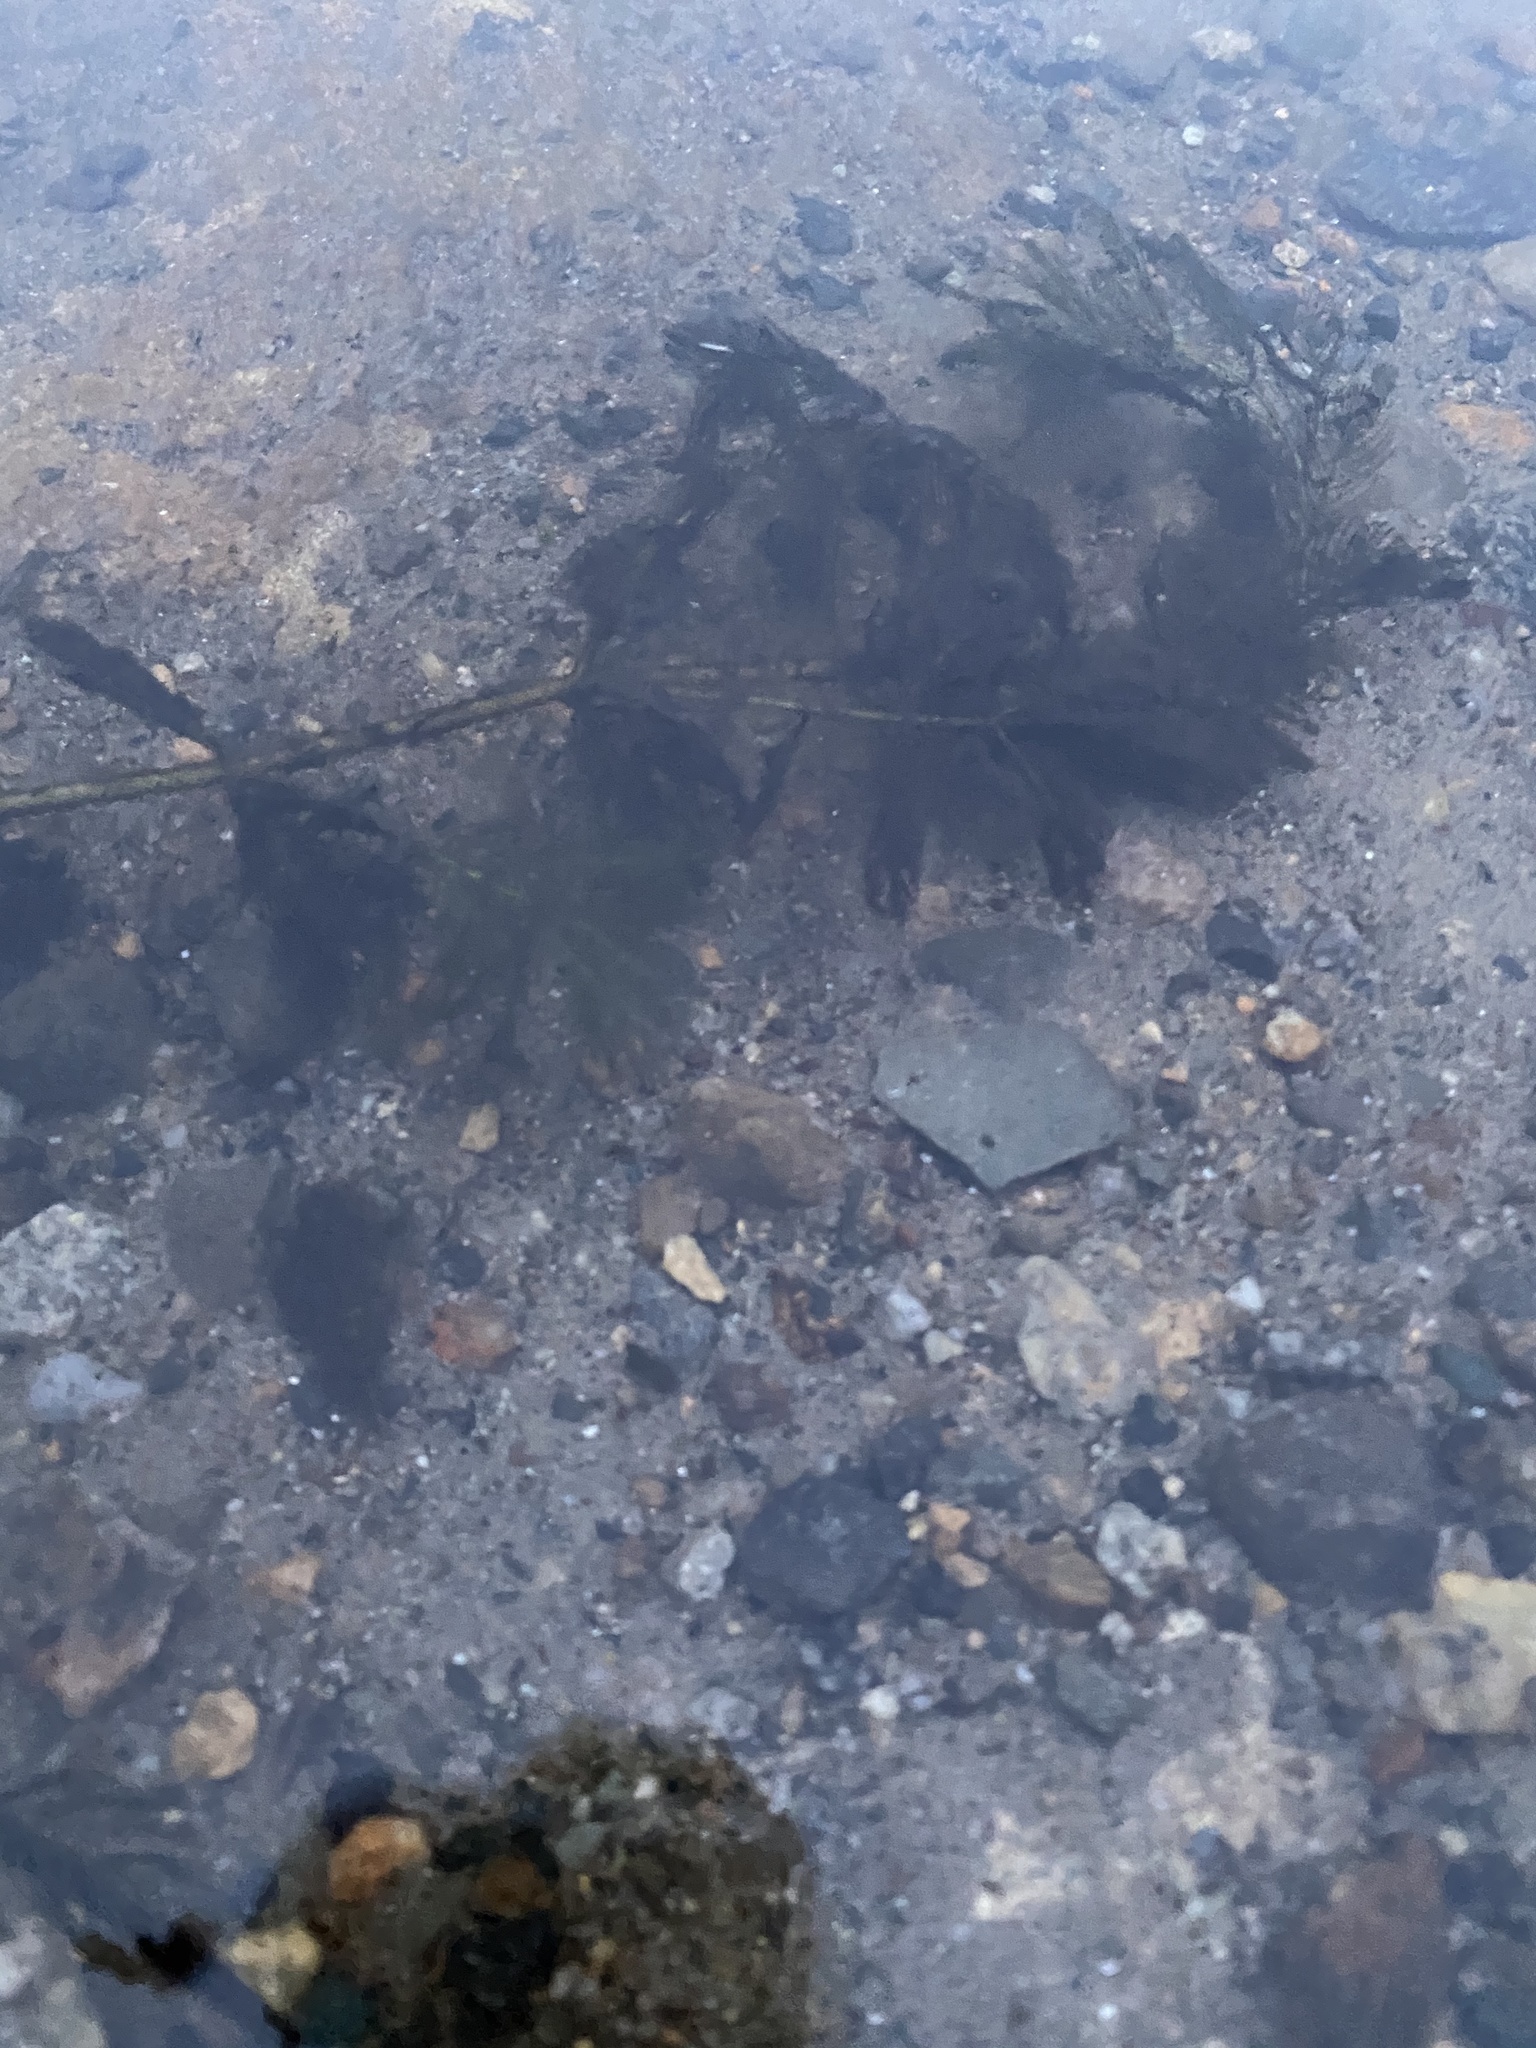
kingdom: Plantae
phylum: Tracheophyta
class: Magnoliopsida
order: Saxifragales
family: Haloragaceae
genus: Myriophyllum
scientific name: Myriophyllum spicatum
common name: Spiked water-milfoil
